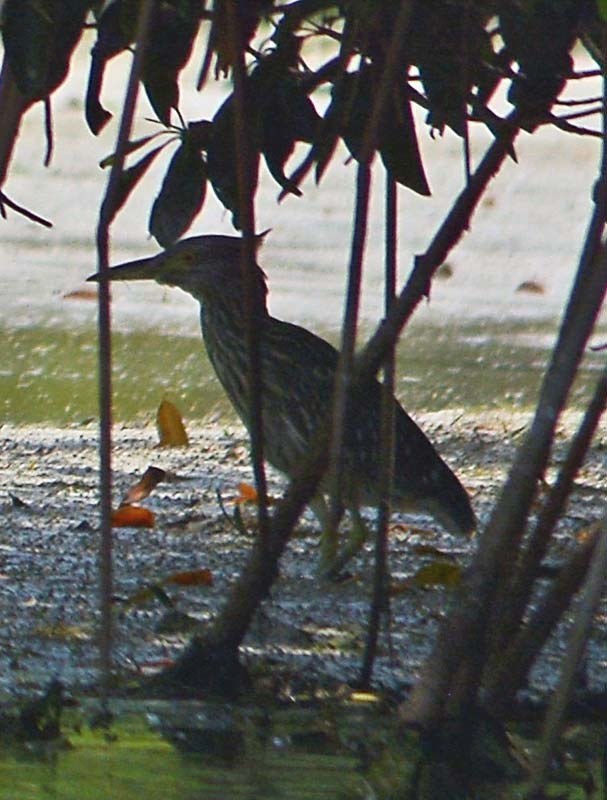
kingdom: Animalia
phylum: Chordata
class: Aves
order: Pelecaniformes
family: Ardeidae
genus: Nycticorax
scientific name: Nycticorax nycticorax
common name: Black-crowned night heron
